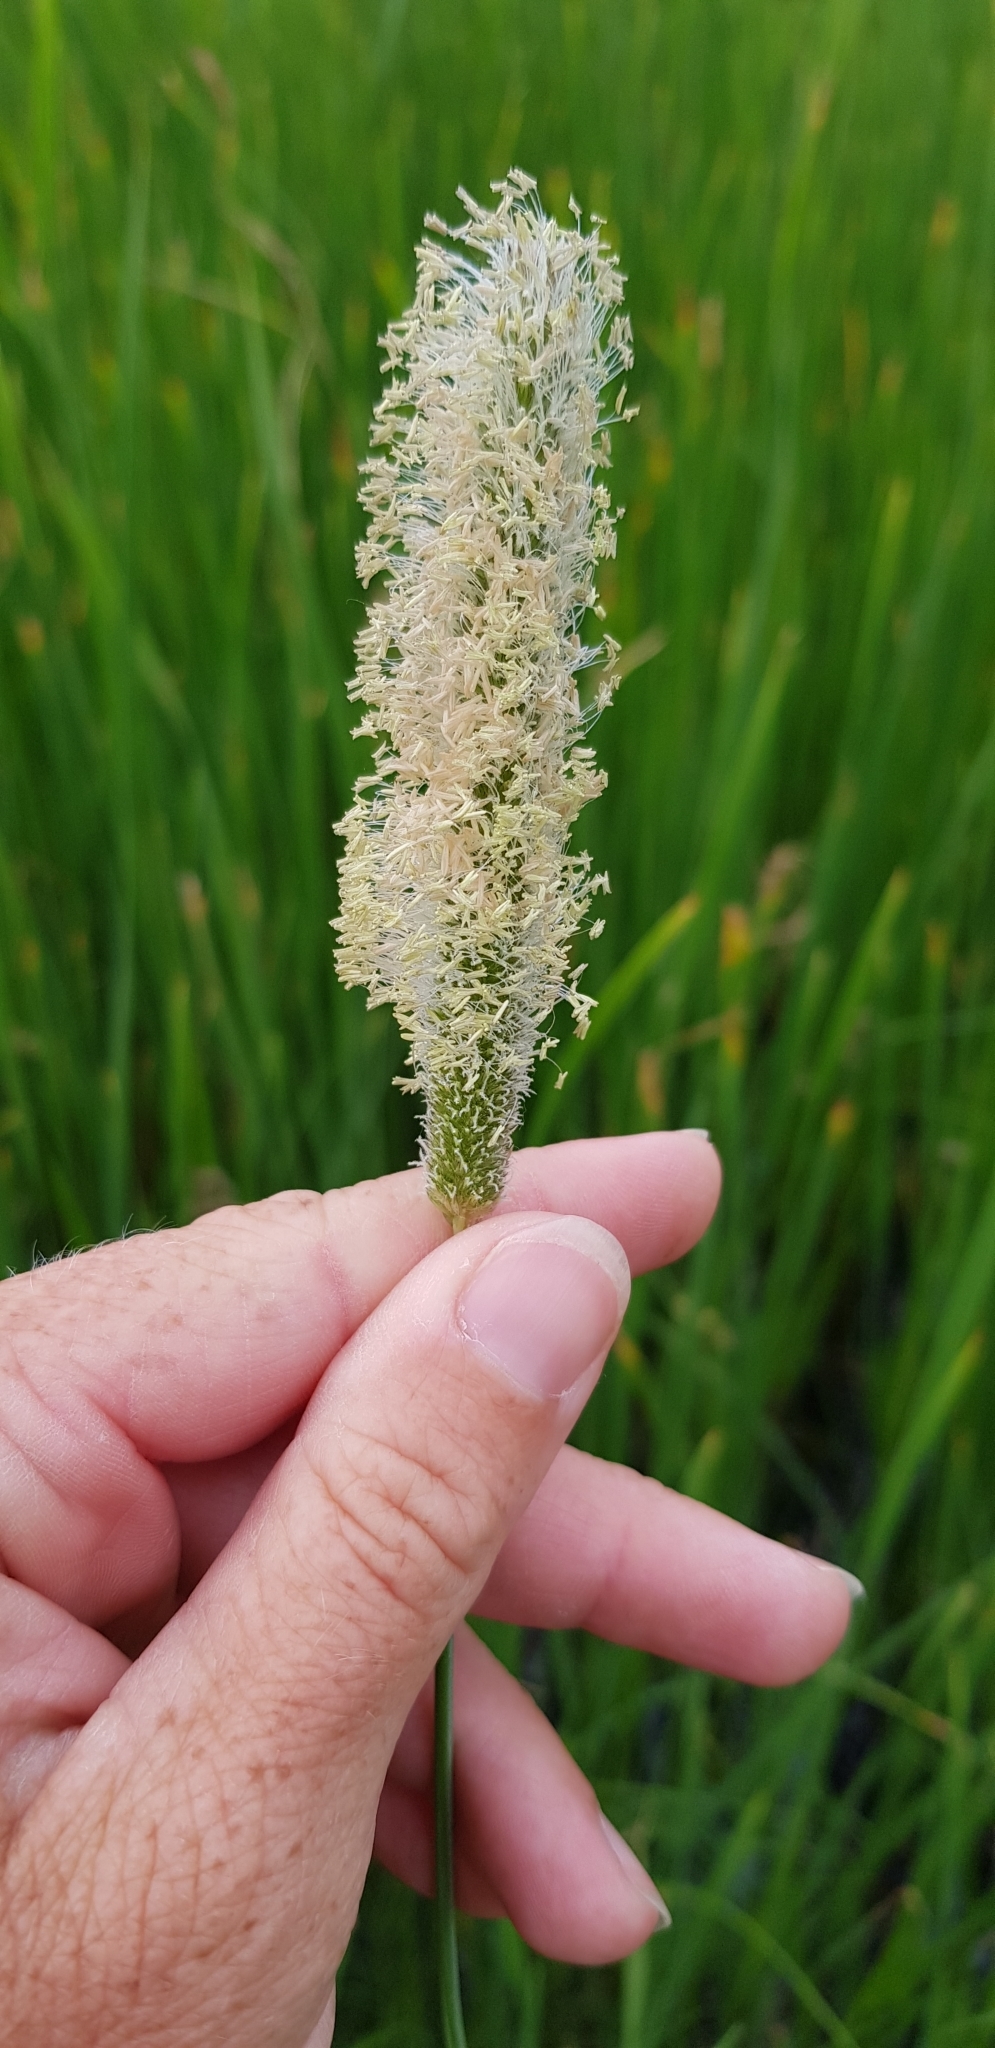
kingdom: Plantae
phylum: Tracheophyta
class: Liliopsida
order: Poales
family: Poaceae
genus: Alopecurus
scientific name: Alopecurus pratensis
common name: Meadow foxtail
